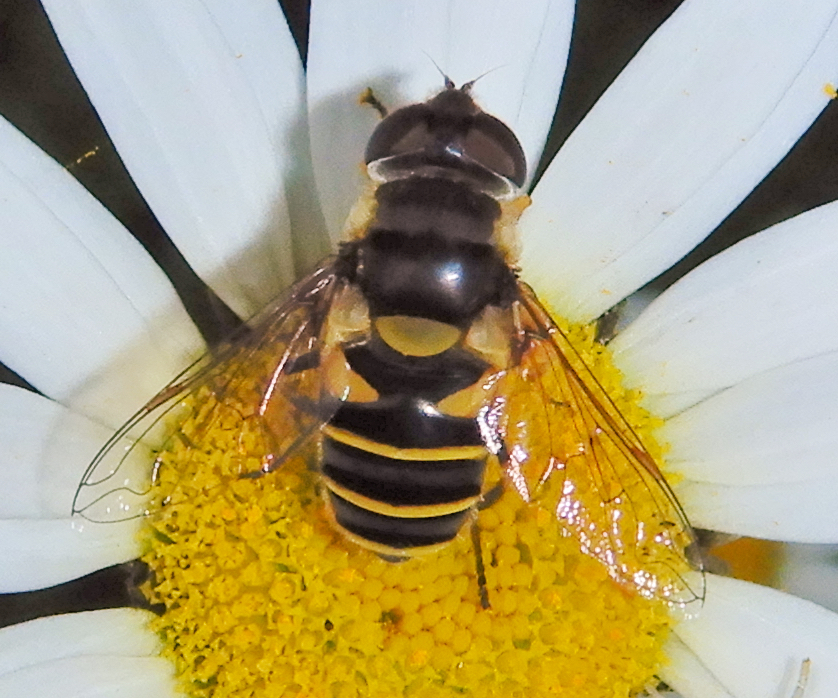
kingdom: Animalia
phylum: Arthropoda
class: Insecta
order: Diptera
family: Syrphidae
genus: Eristalis
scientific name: Eristalis transversa
